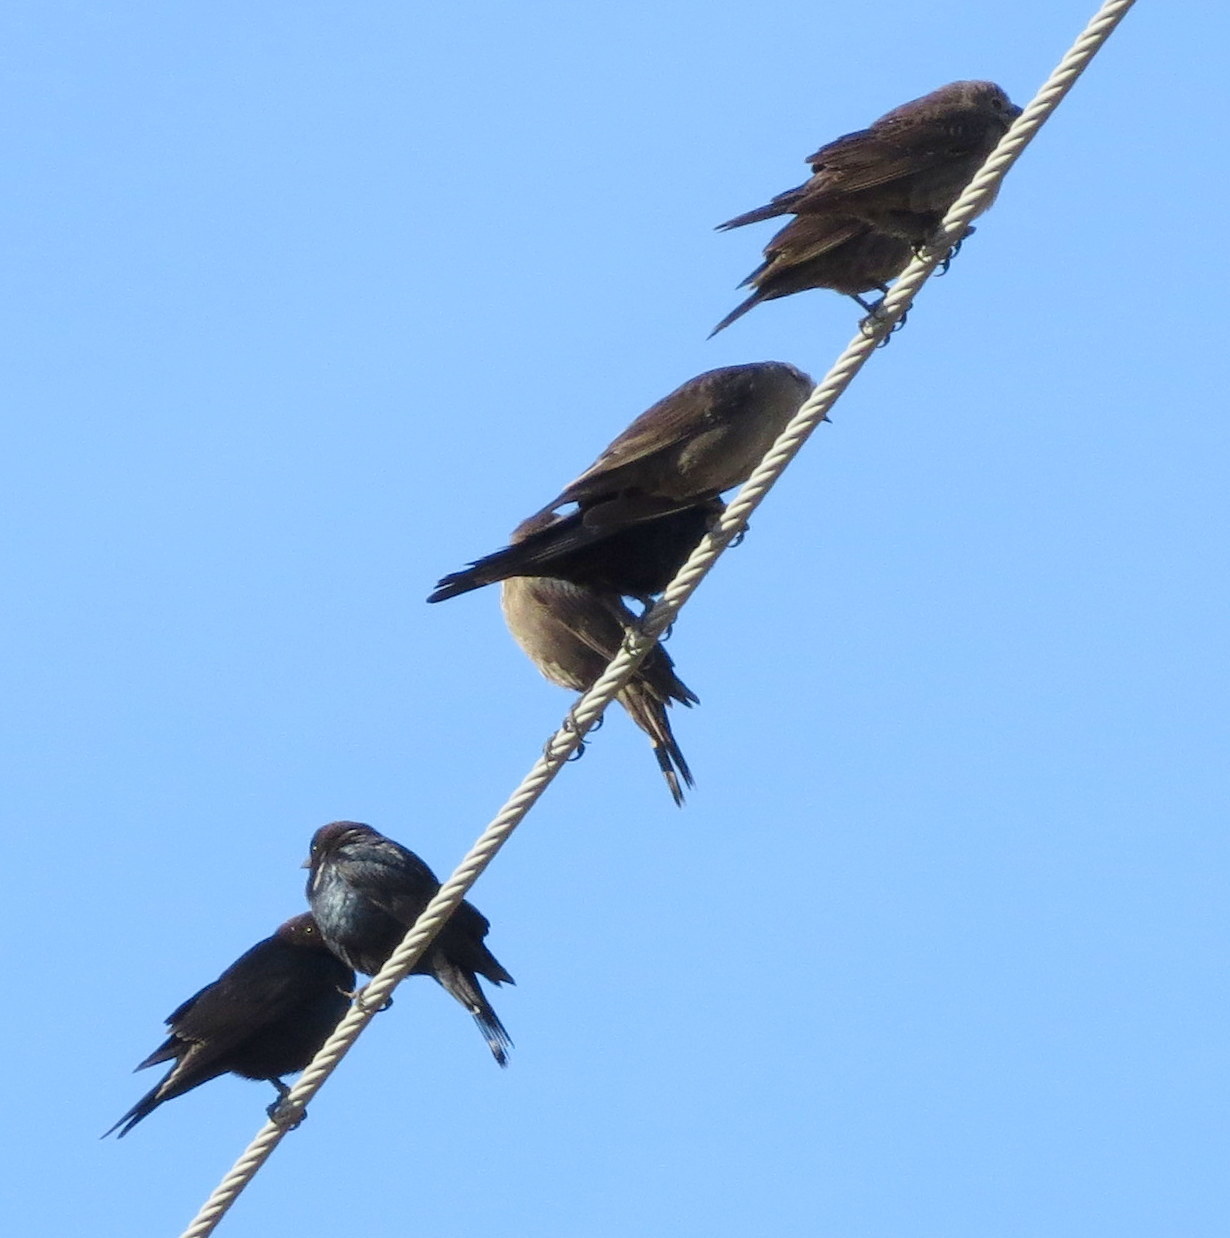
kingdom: Animalia
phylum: Chordata
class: Aves
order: Passeriformes
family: Icteridae
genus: Molothrus
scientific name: Molothrus ater
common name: Brown-headed cowbird
